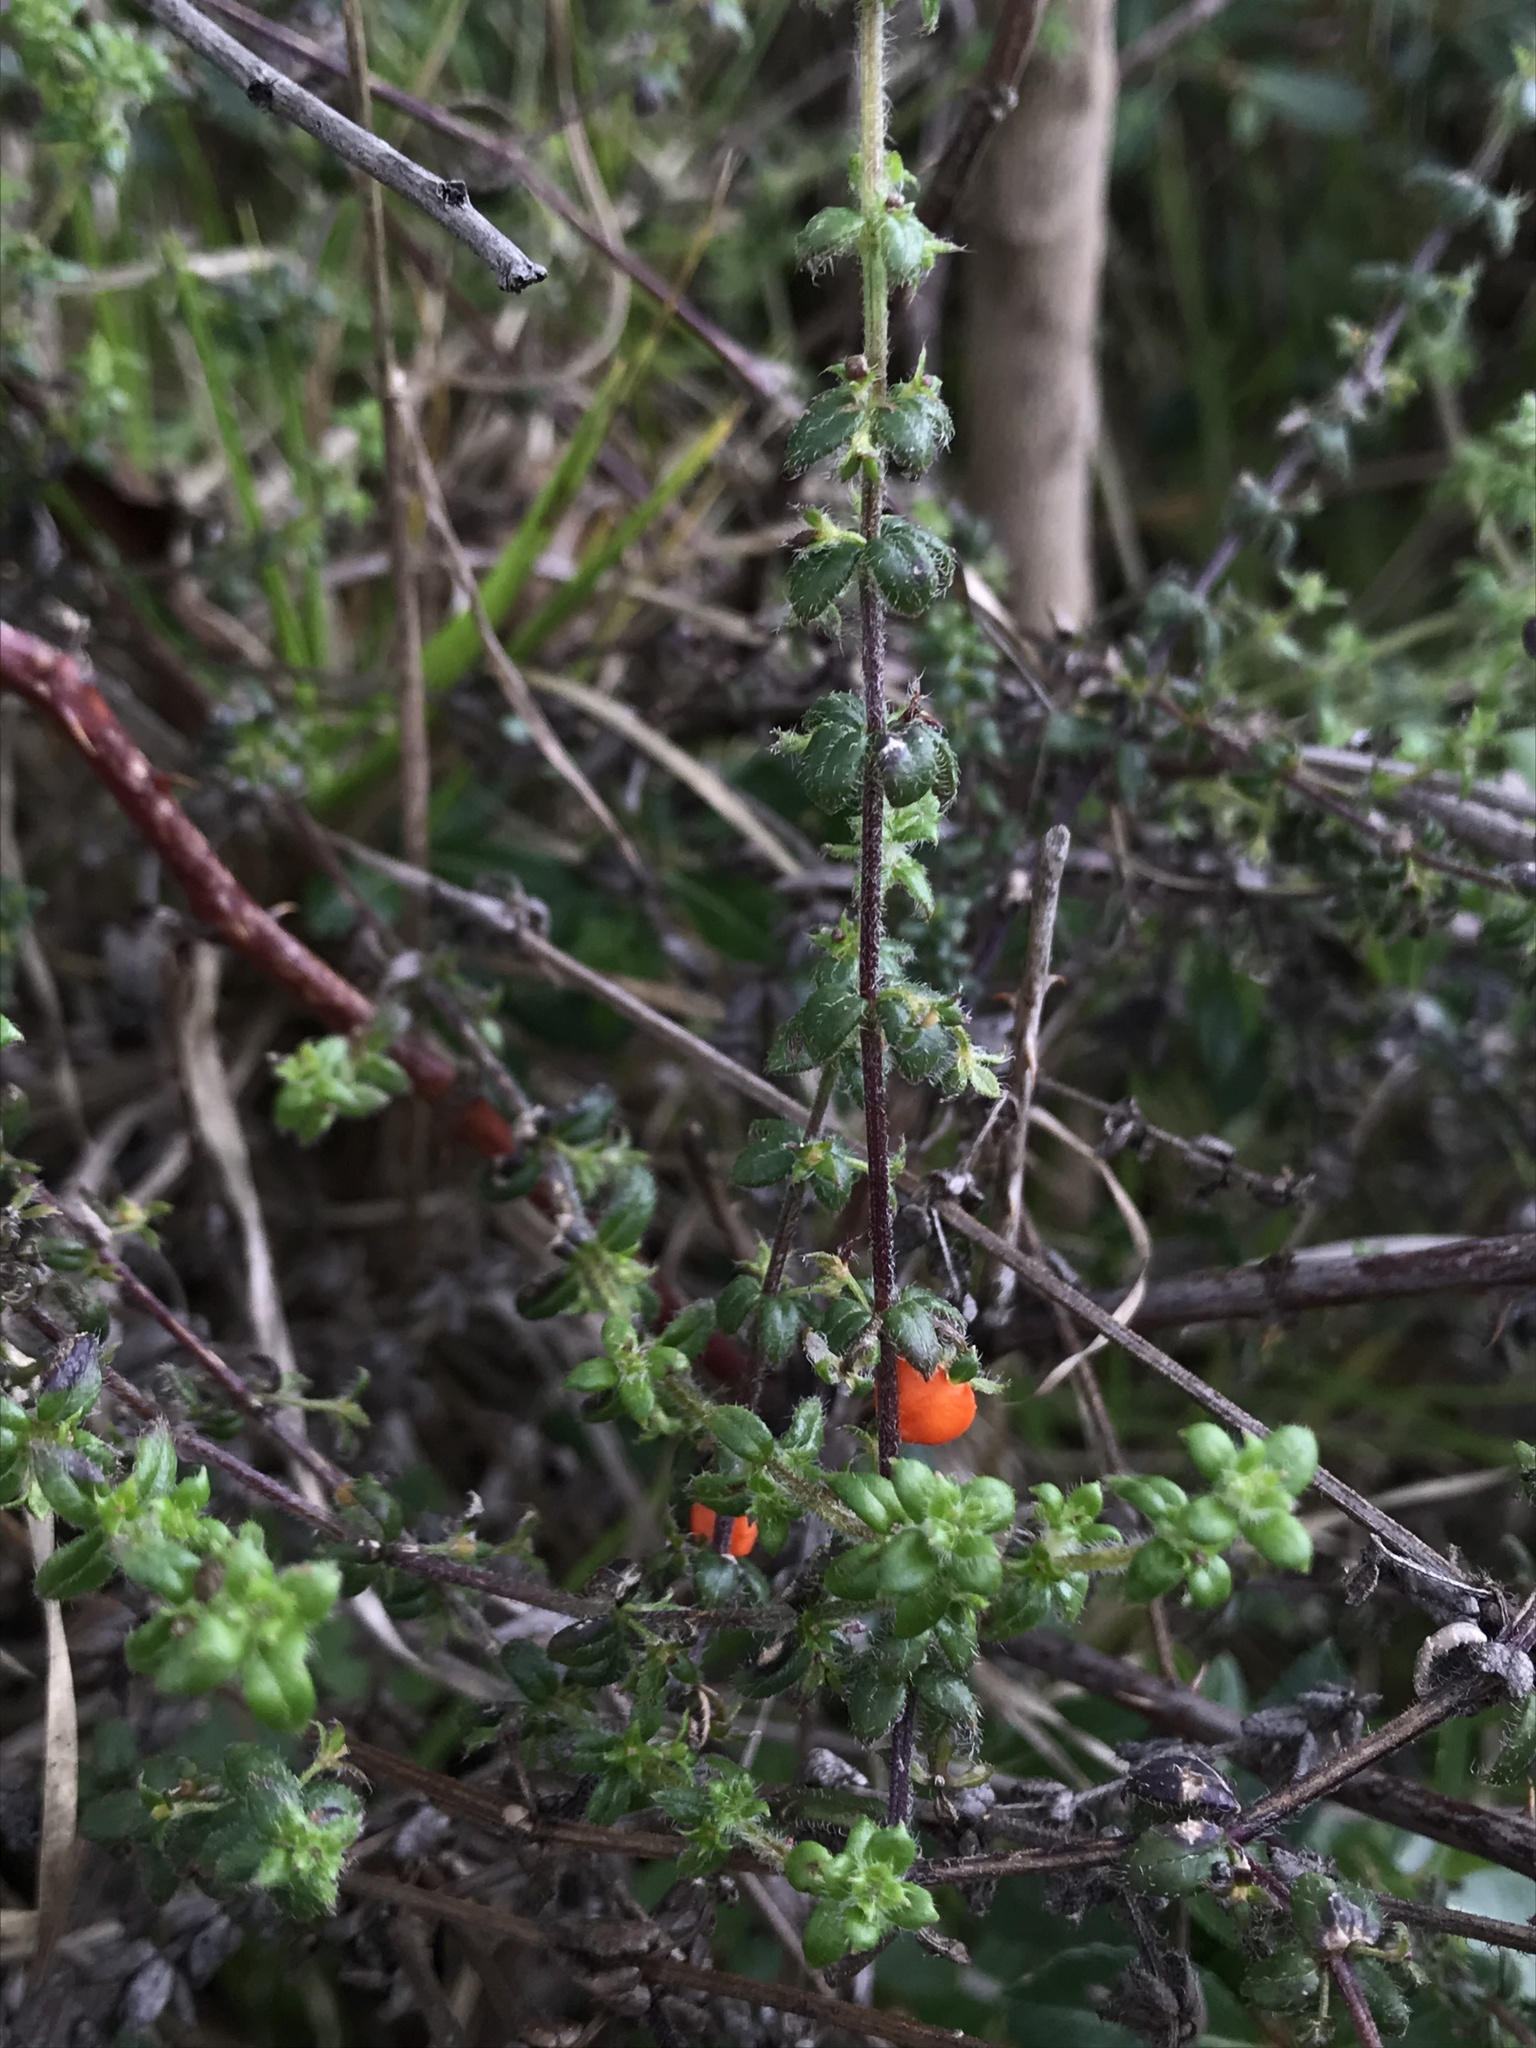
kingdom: Plantae
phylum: Tracheophyta
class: Magnoliopsida
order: Gentianales
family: Rubiaceae
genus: Galium
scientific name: Galium hypocarpium
